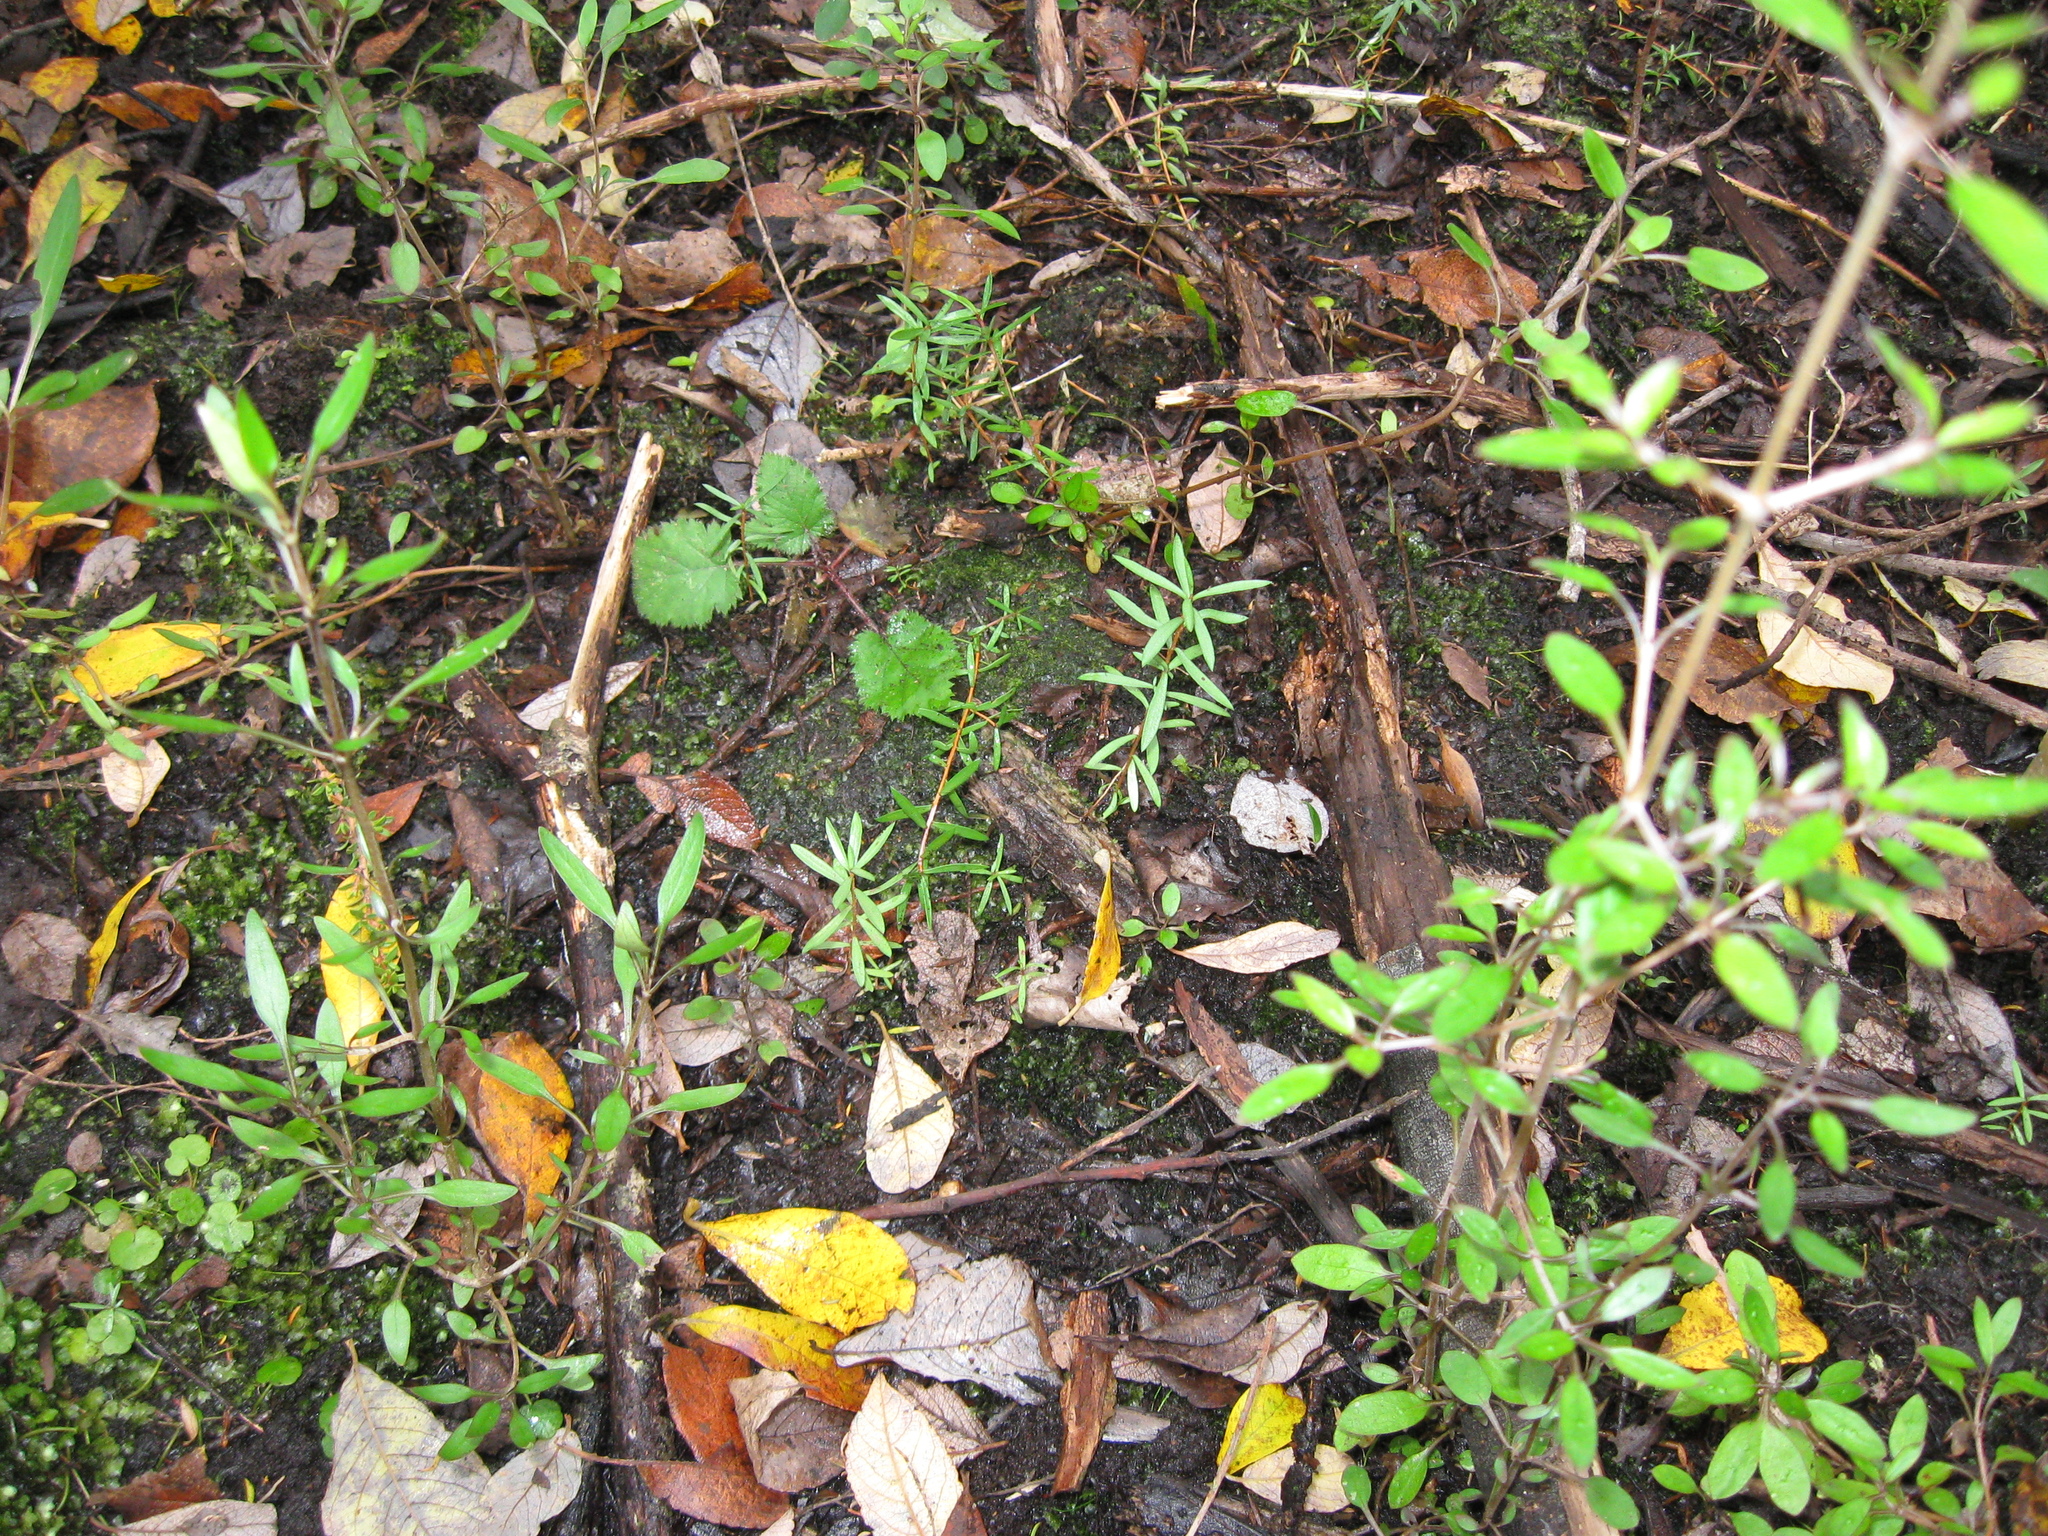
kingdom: Plantae
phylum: Tracheophyta
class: Magnoliopsida
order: Myrtales
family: Myrtaceae
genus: Leptospermum
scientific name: Leptospermum scoparium
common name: Broom tea-tree
